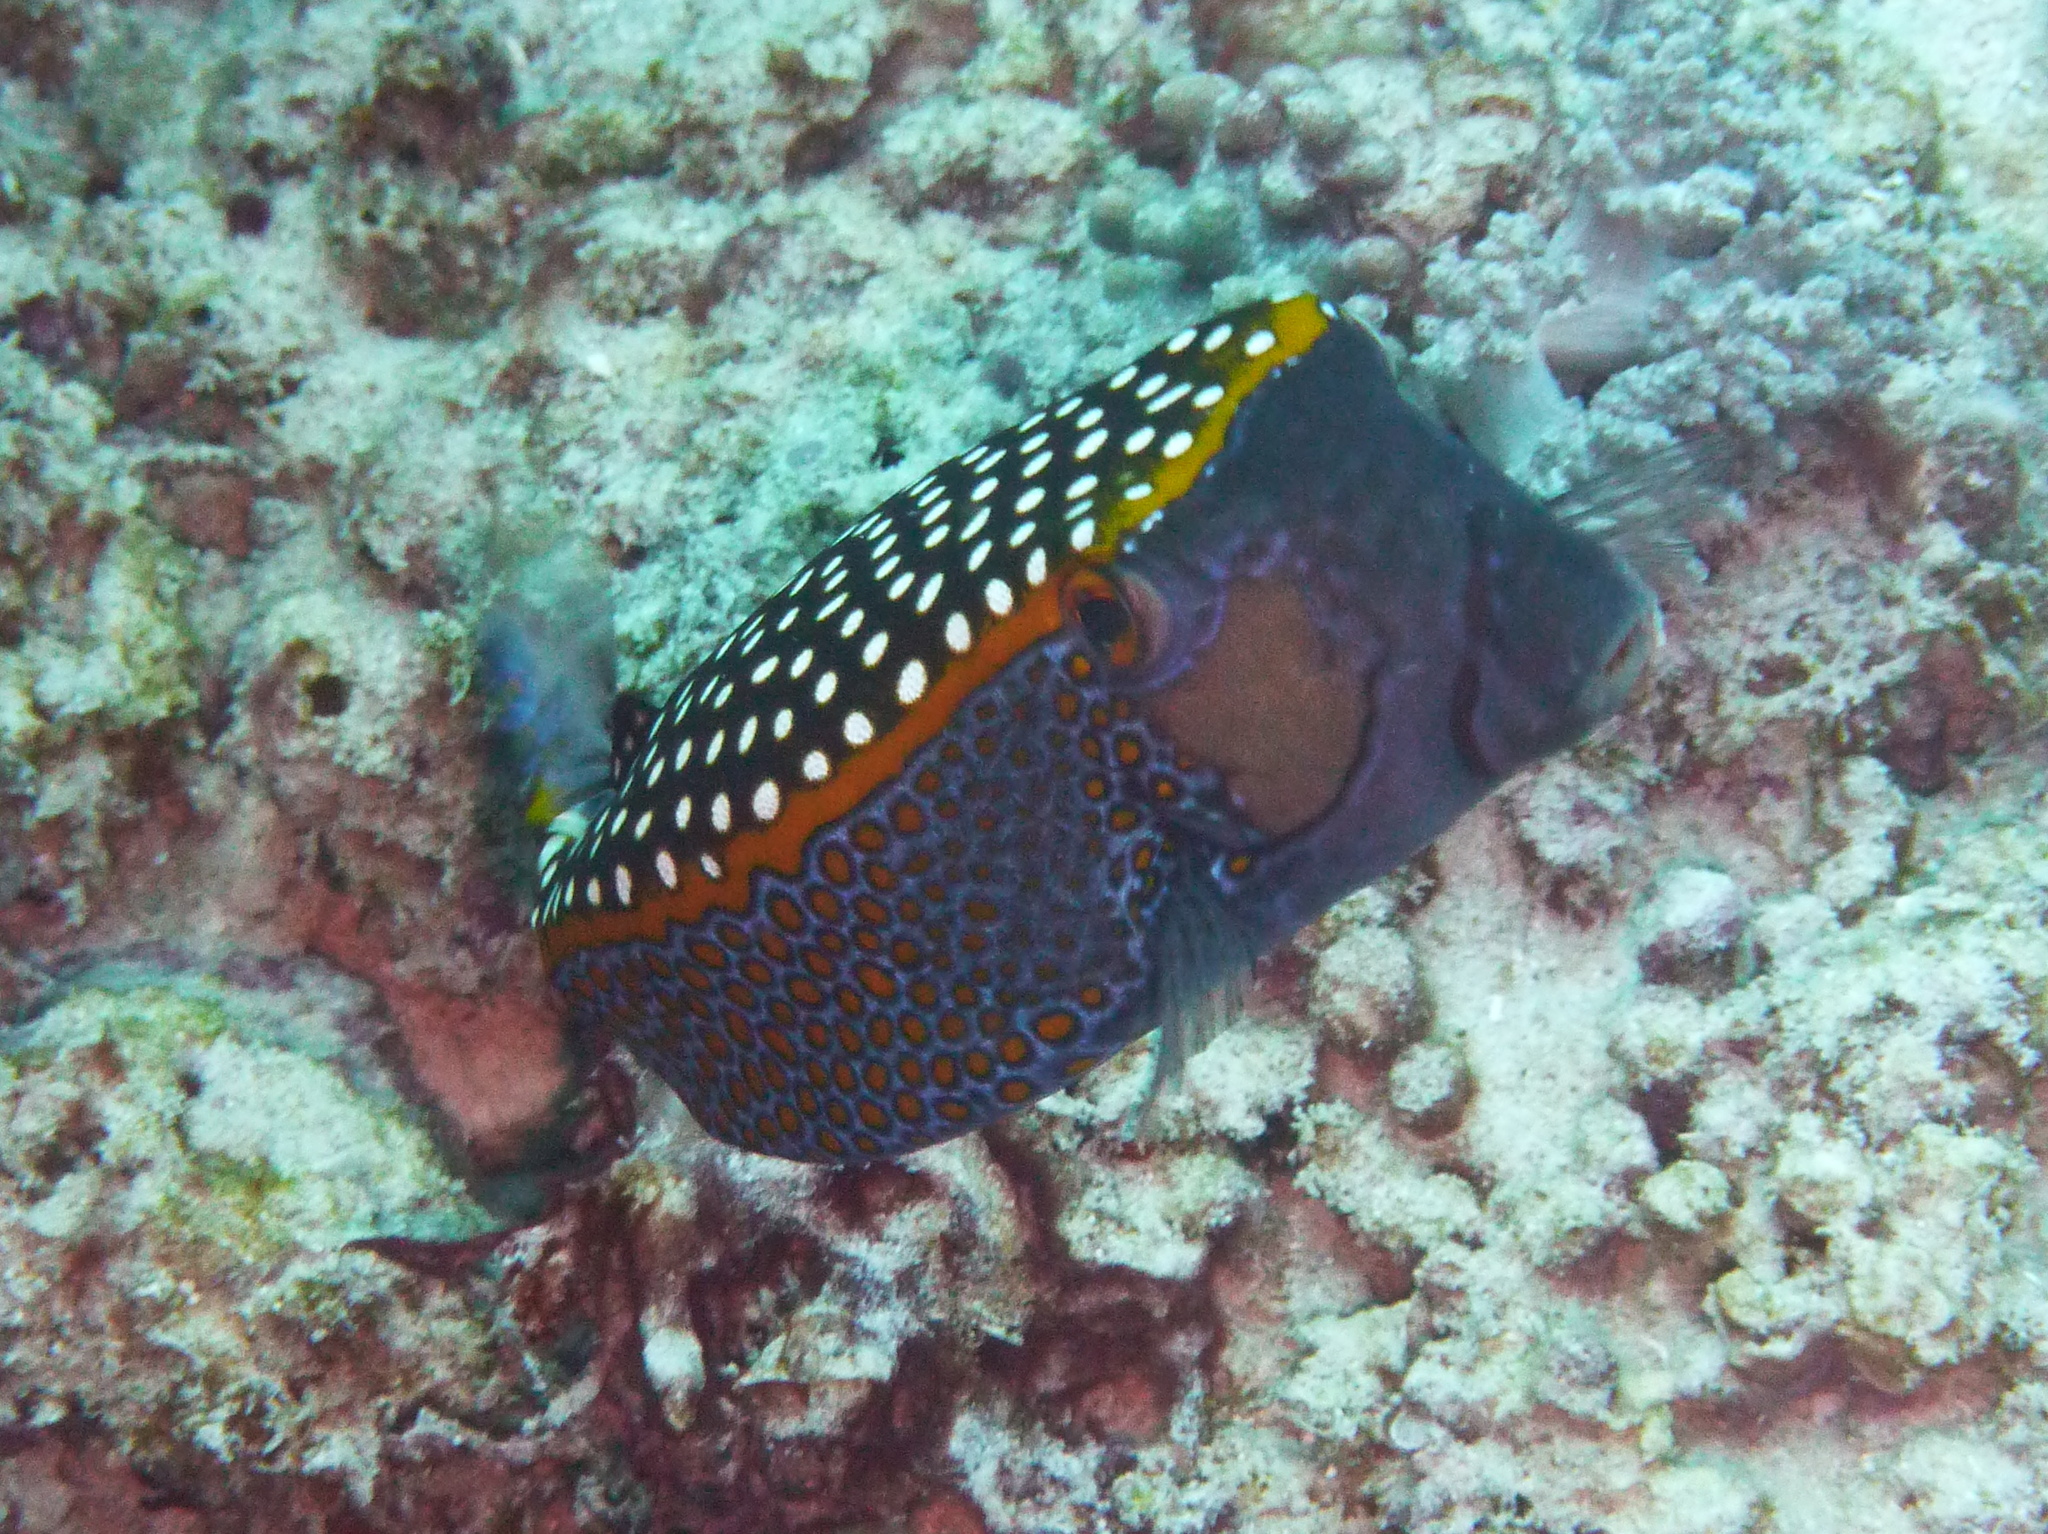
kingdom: Animalia
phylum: Chordata
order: Tetraodontiformes
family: Ostraciidae
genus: Ostracion
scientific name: Ostracion meleagris
